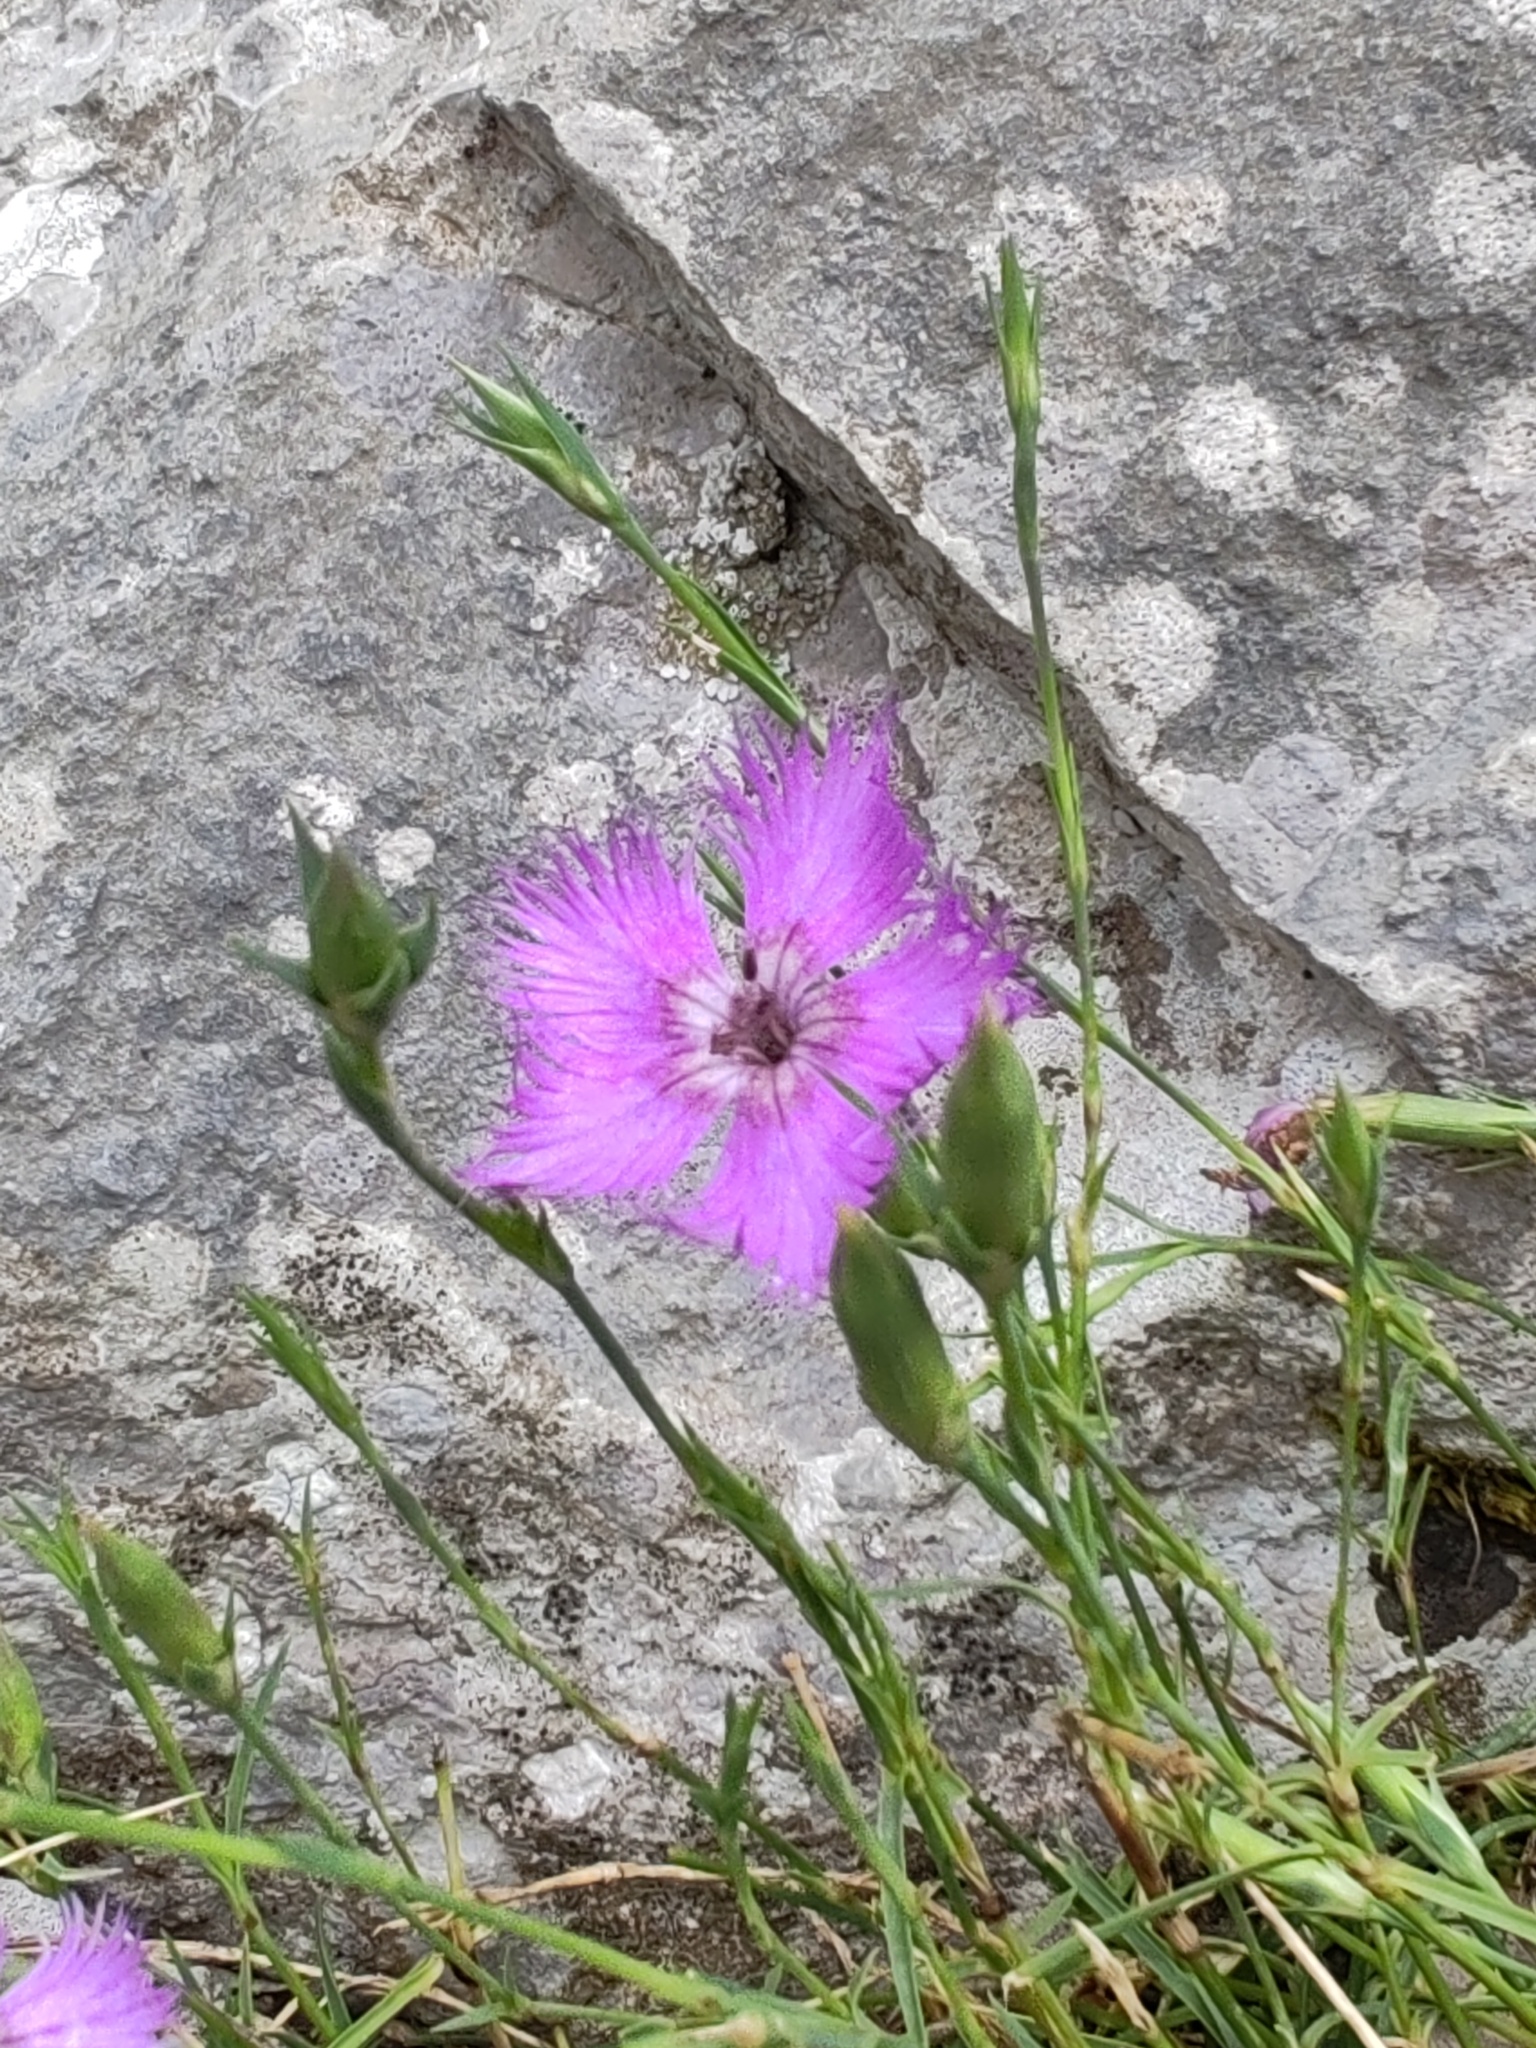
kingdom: Plantae
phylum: Tracheophyta
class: Magnoliopsida
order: Caryophyllales
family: Caryophyllaceae
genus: Dianthus
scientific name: Dianthus hyssopifolius
